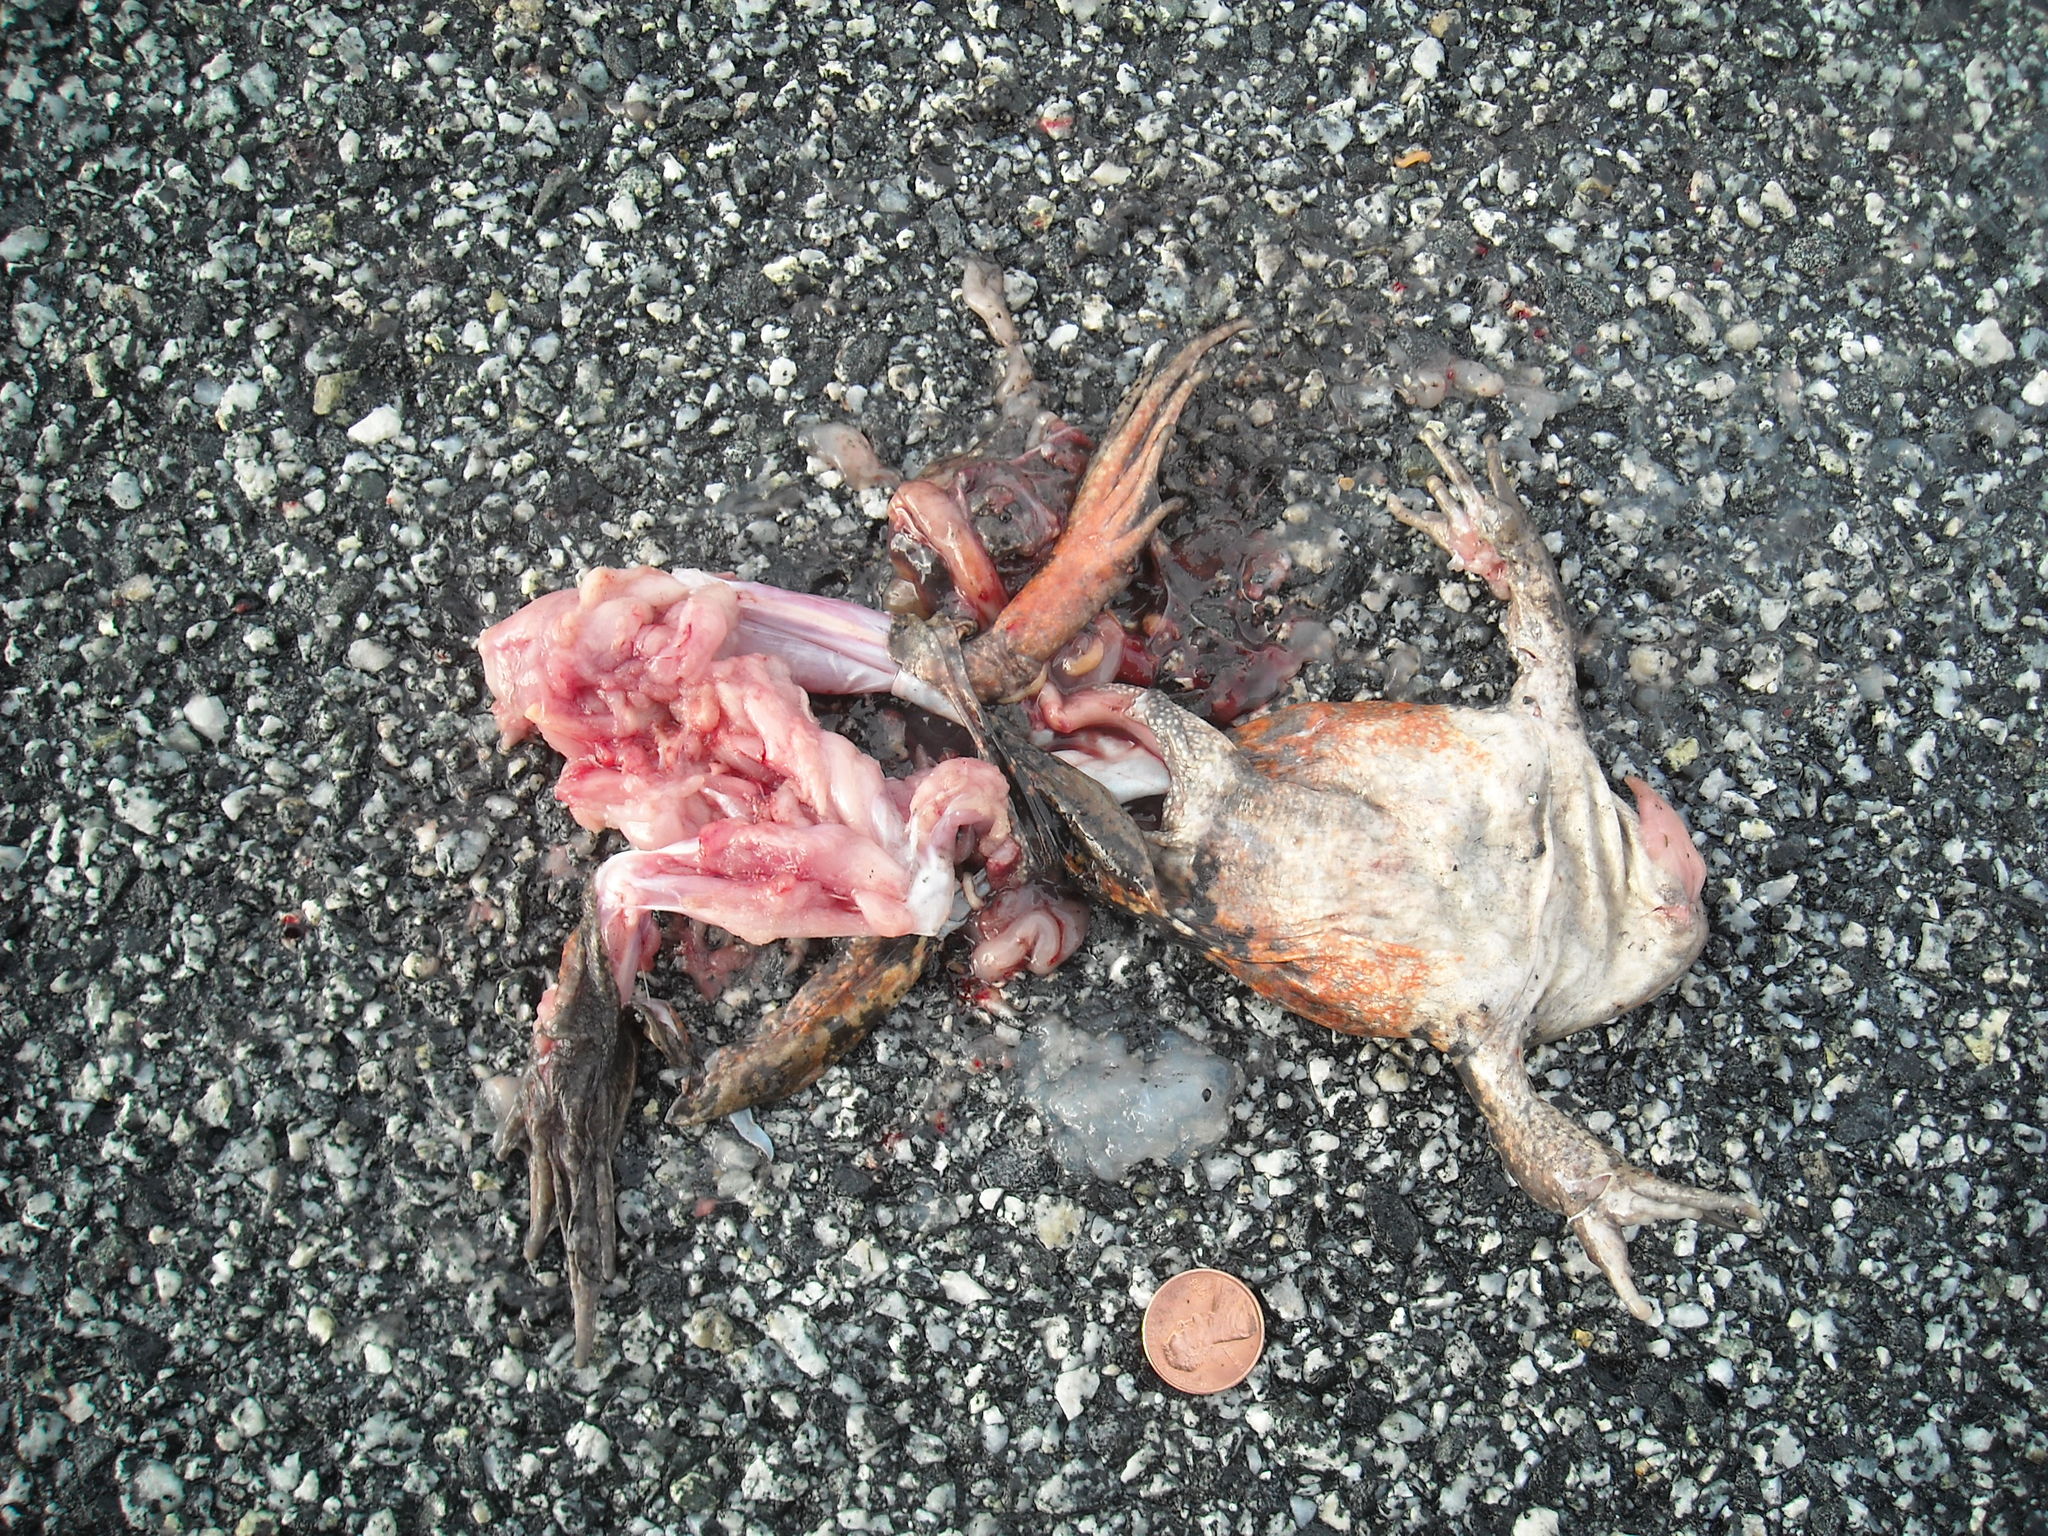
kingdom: Animalia
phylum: Chordata
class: Amphibia
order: Anura
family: Ranidae
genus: Rana
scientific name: Rana draytonii
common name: California red-legged frog
